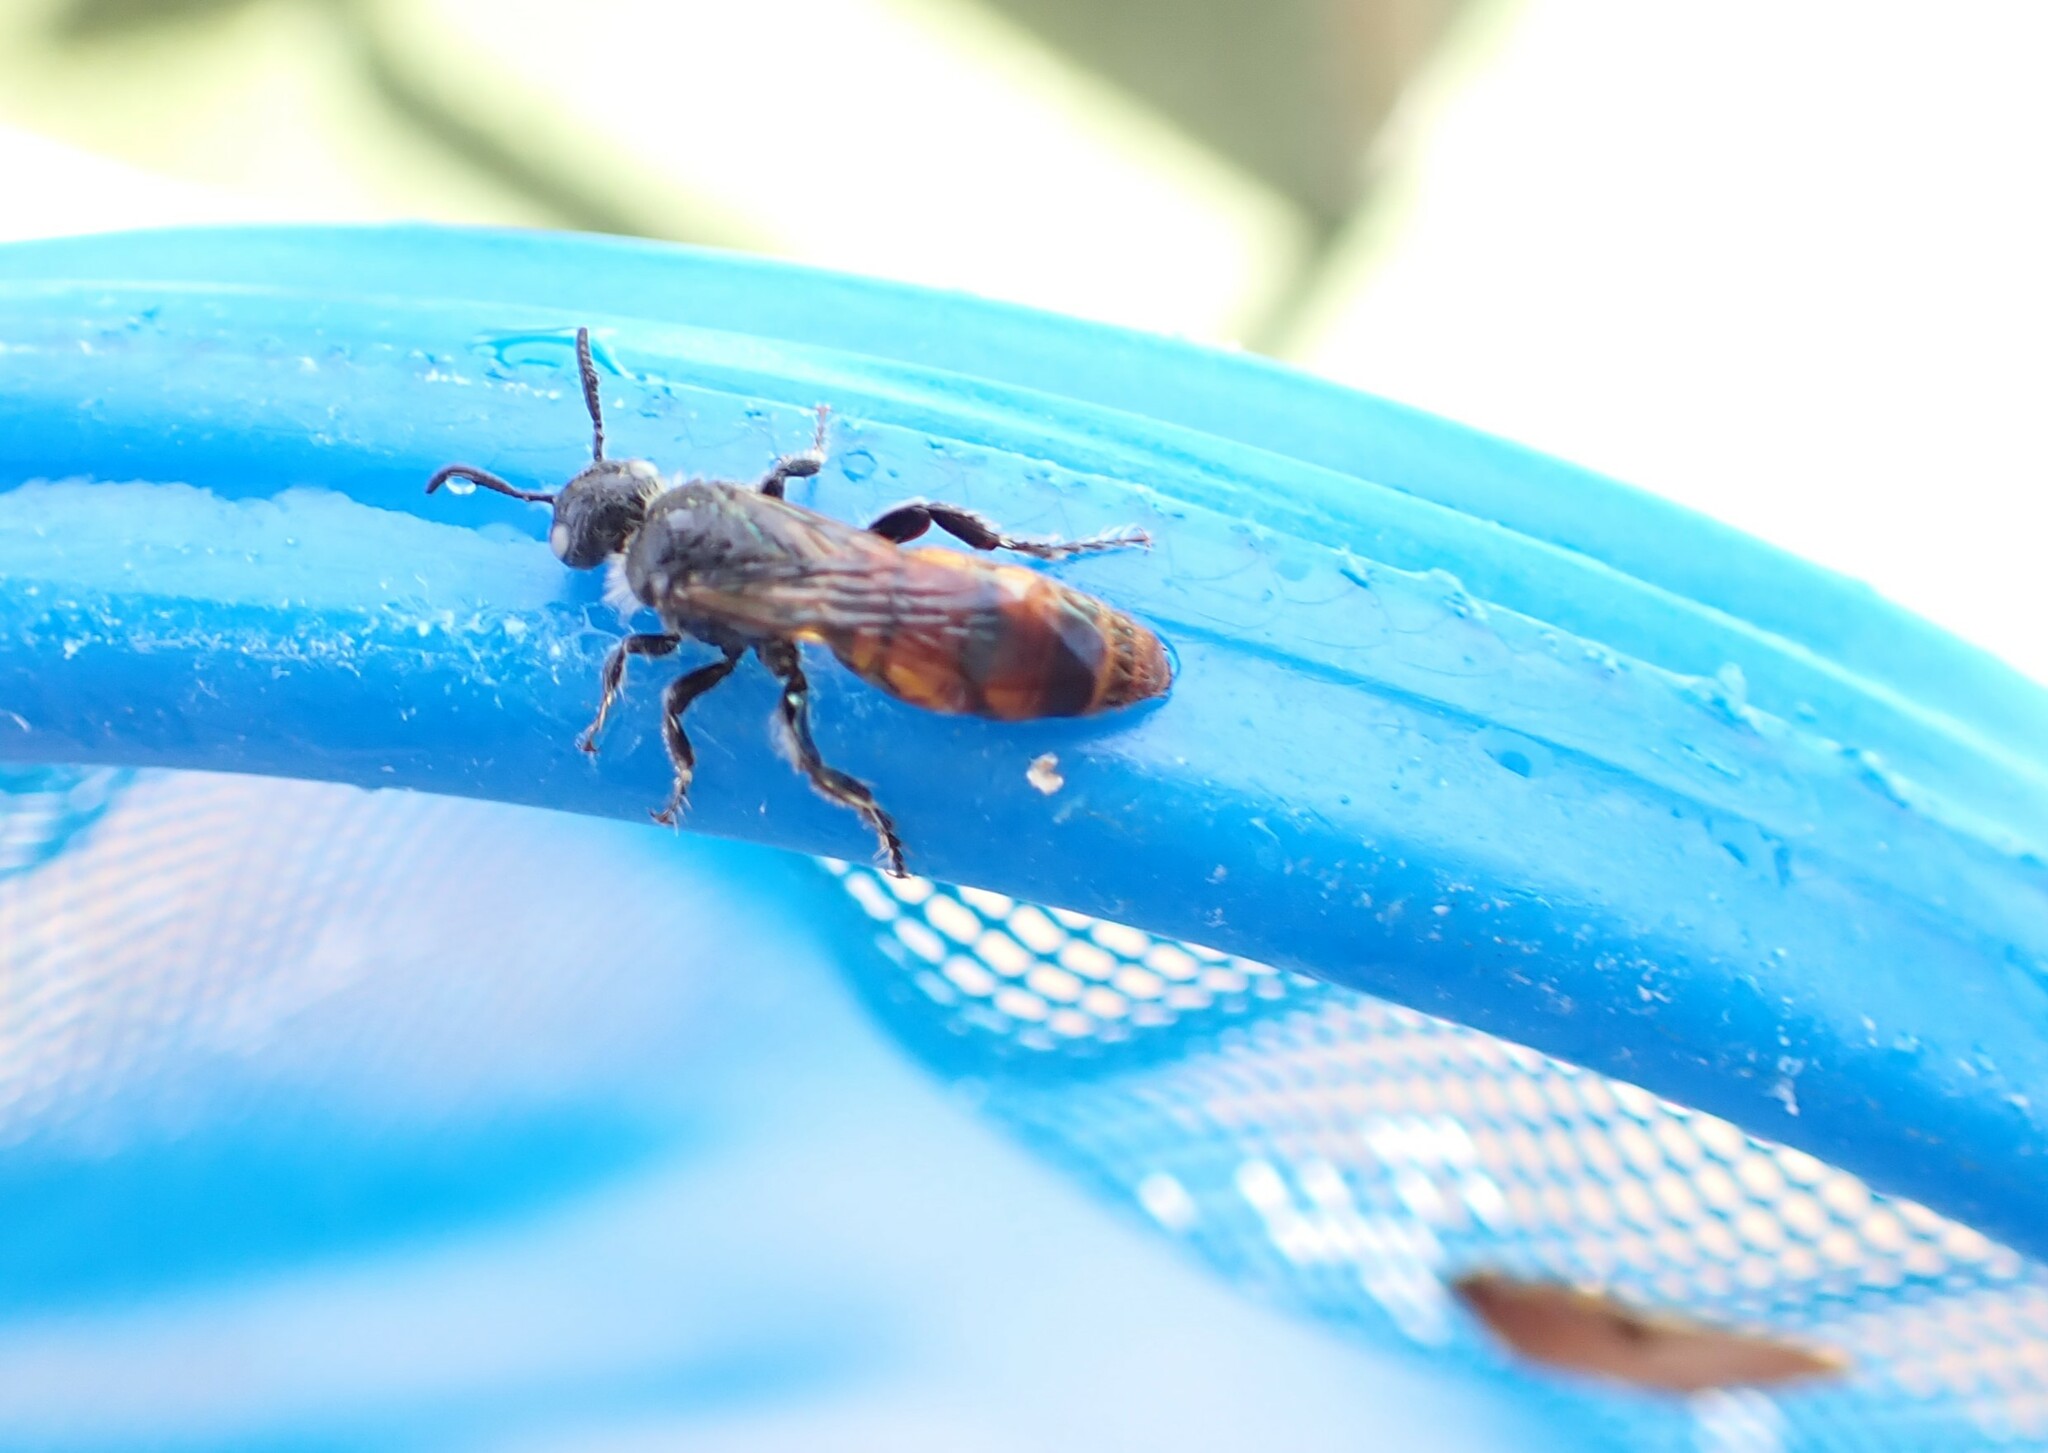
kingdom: Animalia
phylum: Arthropoda
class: Insecta
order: Hymenoptera
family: Scoliidae
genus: Micromeriella
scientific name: Micromeriella aureola
